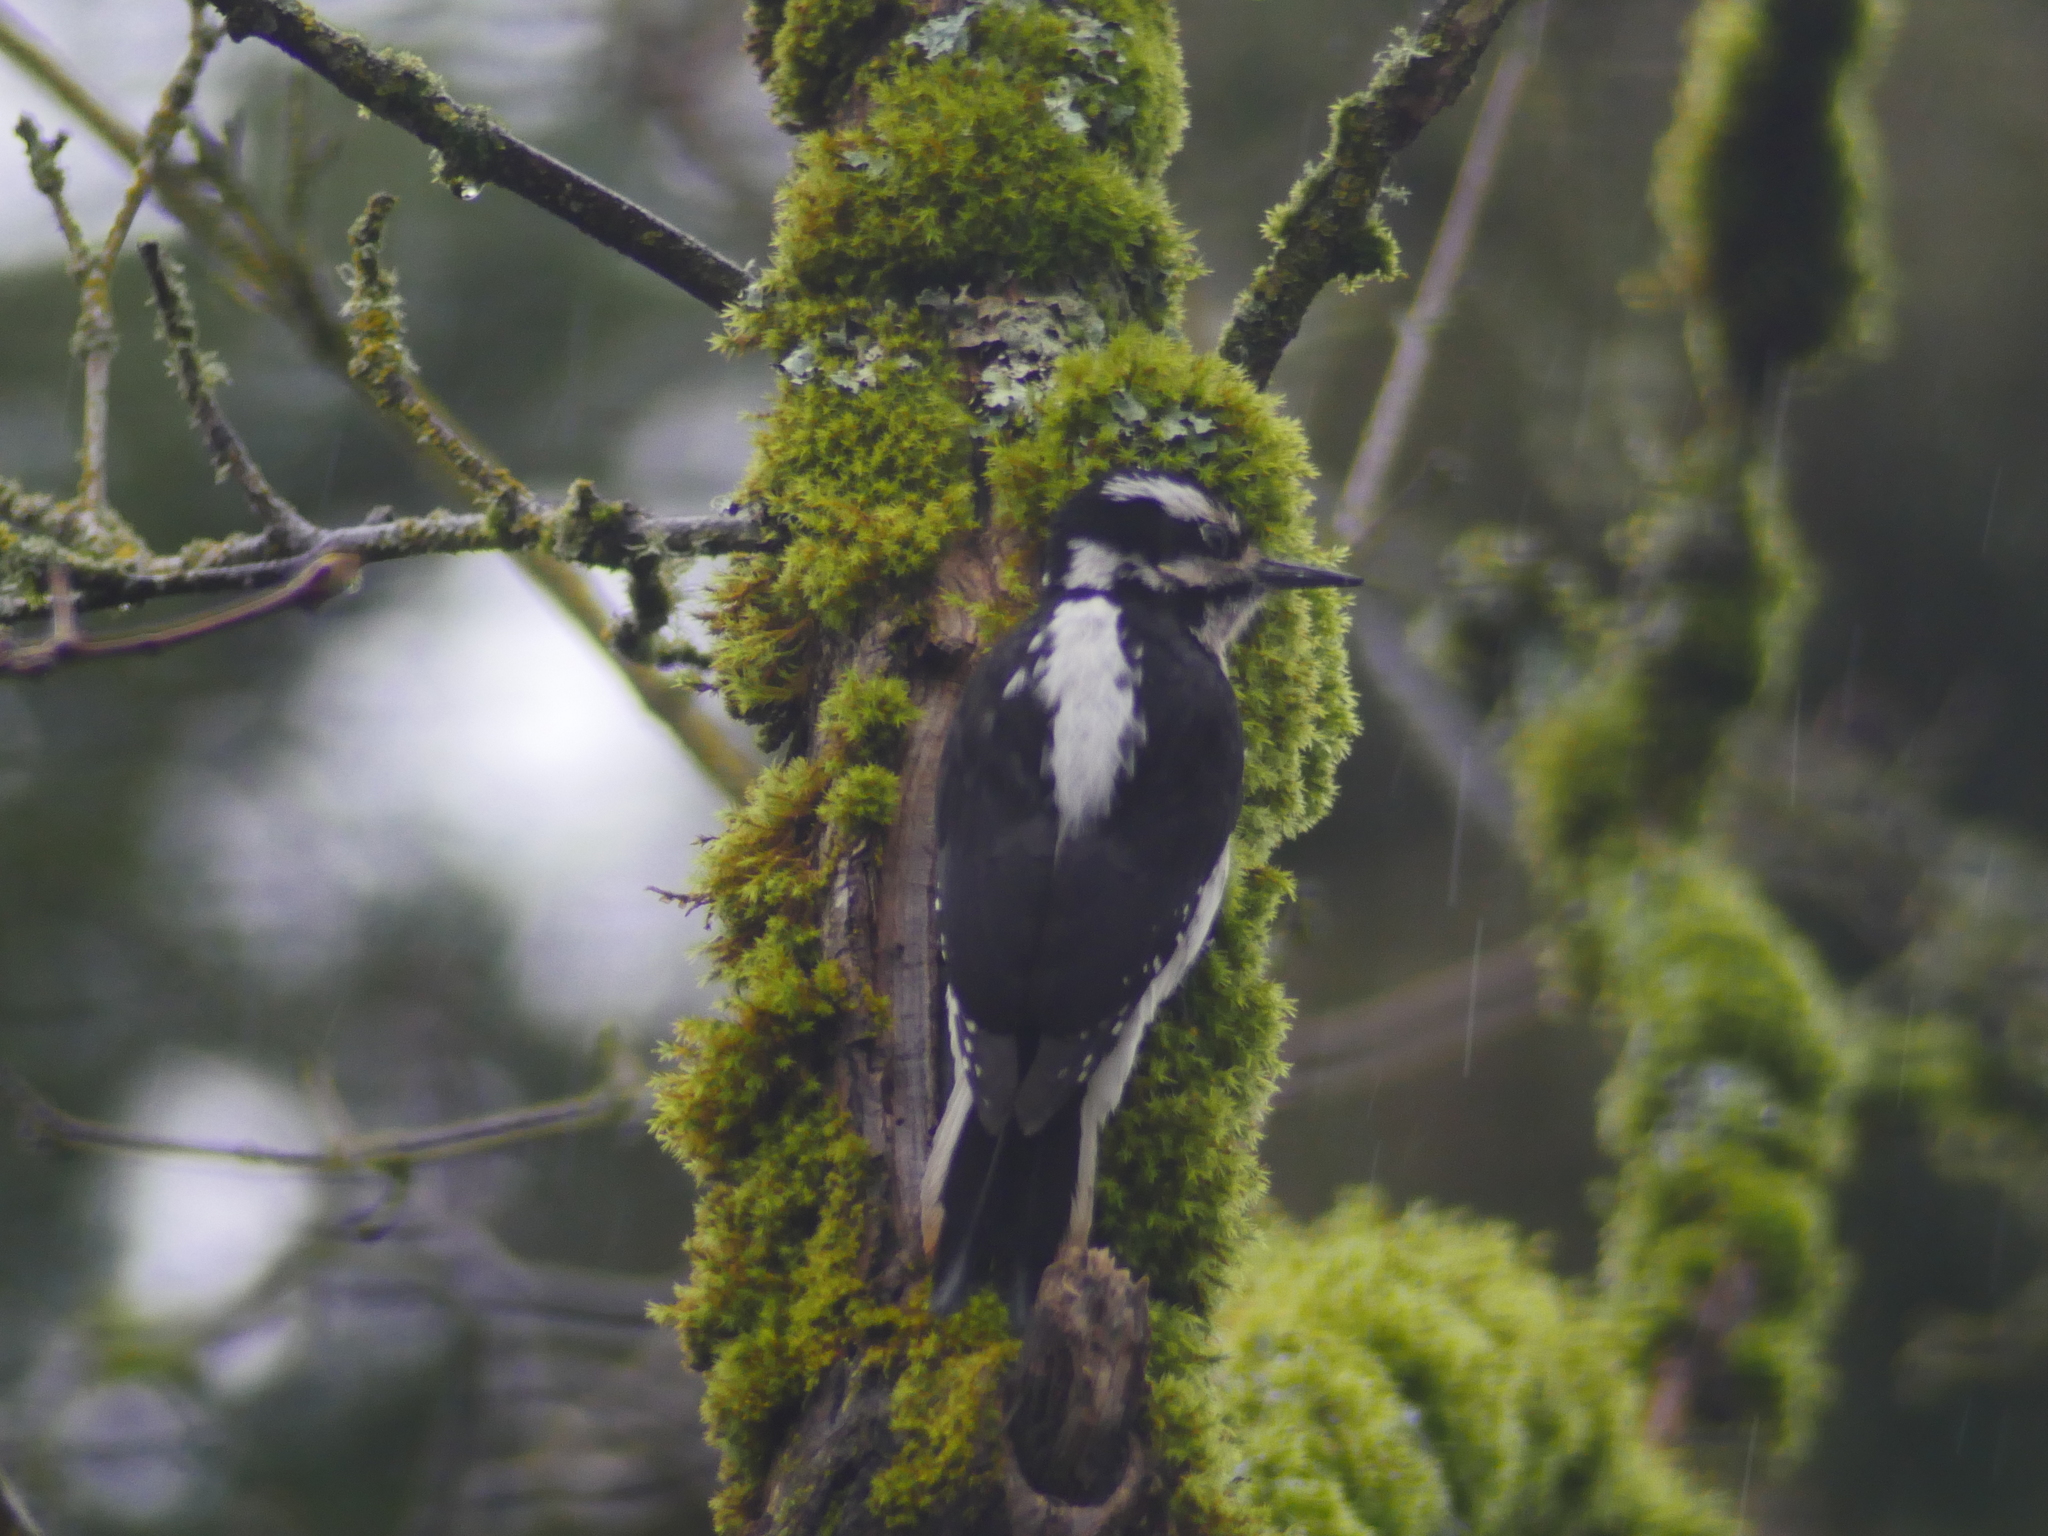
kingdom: Animalia
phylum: Chordata
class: Aves
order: Piciformes
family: Picidae
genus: Leuconotopicus
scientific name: Leuconotopicus villosus
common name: Hairy woodpecker
